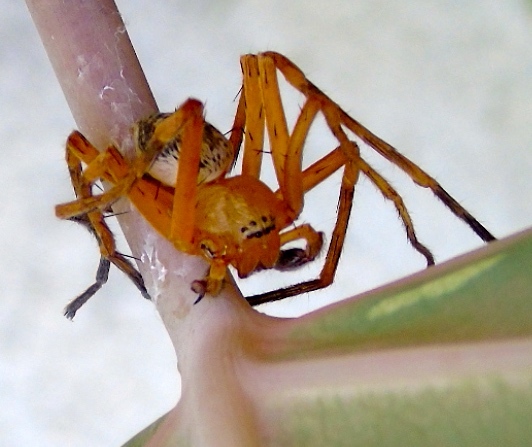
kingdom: Animalia
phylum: Arthropoda
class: Arachnida
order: Araneae
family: Sparassidae
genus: Curicaberis
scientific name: Curicaberis
